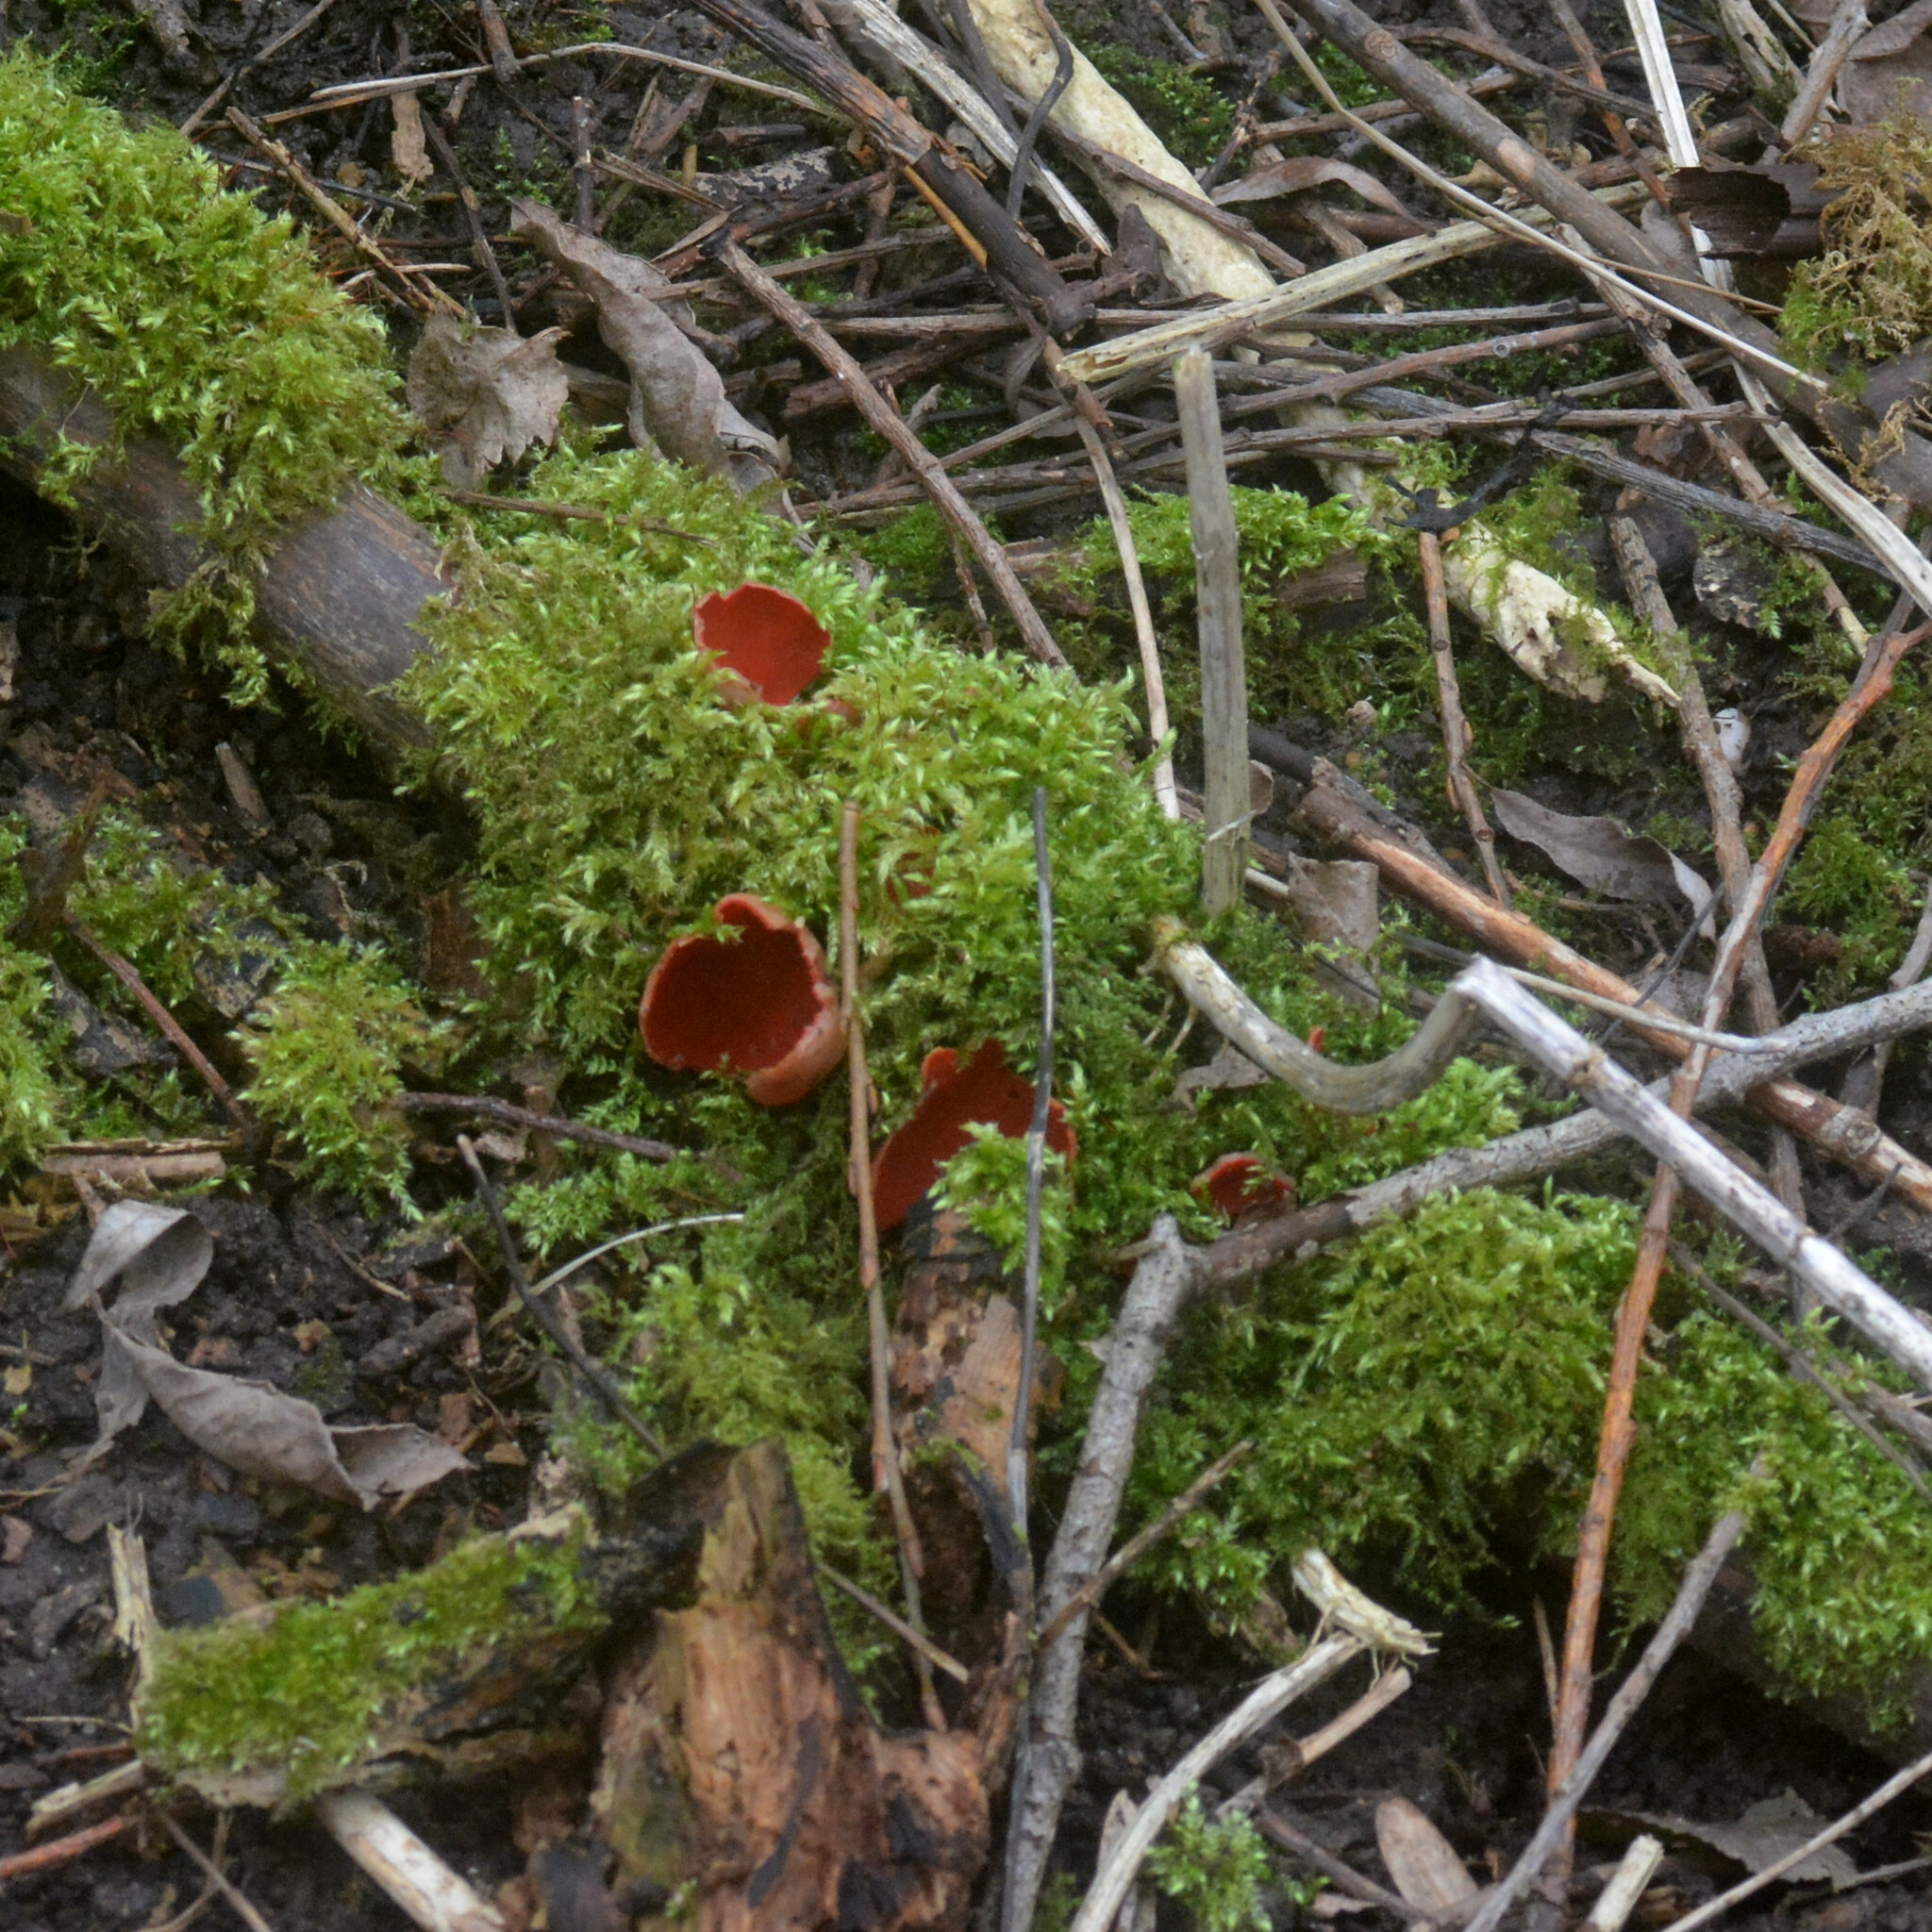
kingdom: Fungi
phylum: Ascomycota
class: Pezizomycetes
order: Pezizales
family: Sarcoscyphaceae
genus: Sarcoscypha
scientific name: Sarcoscypha
